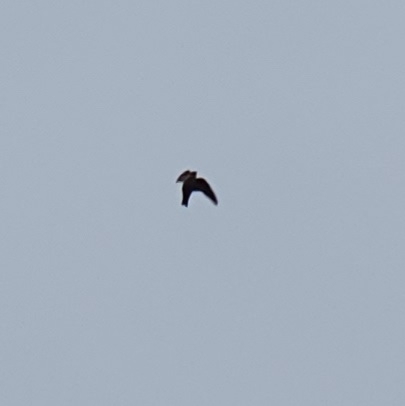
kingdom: Animalia
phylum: Chordata
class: Aves
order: Passeriformes
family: Hirundinidae
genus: Ptyonoprogne
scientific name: Ptyonoprogne rupestris
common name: Eurasian crag martin
